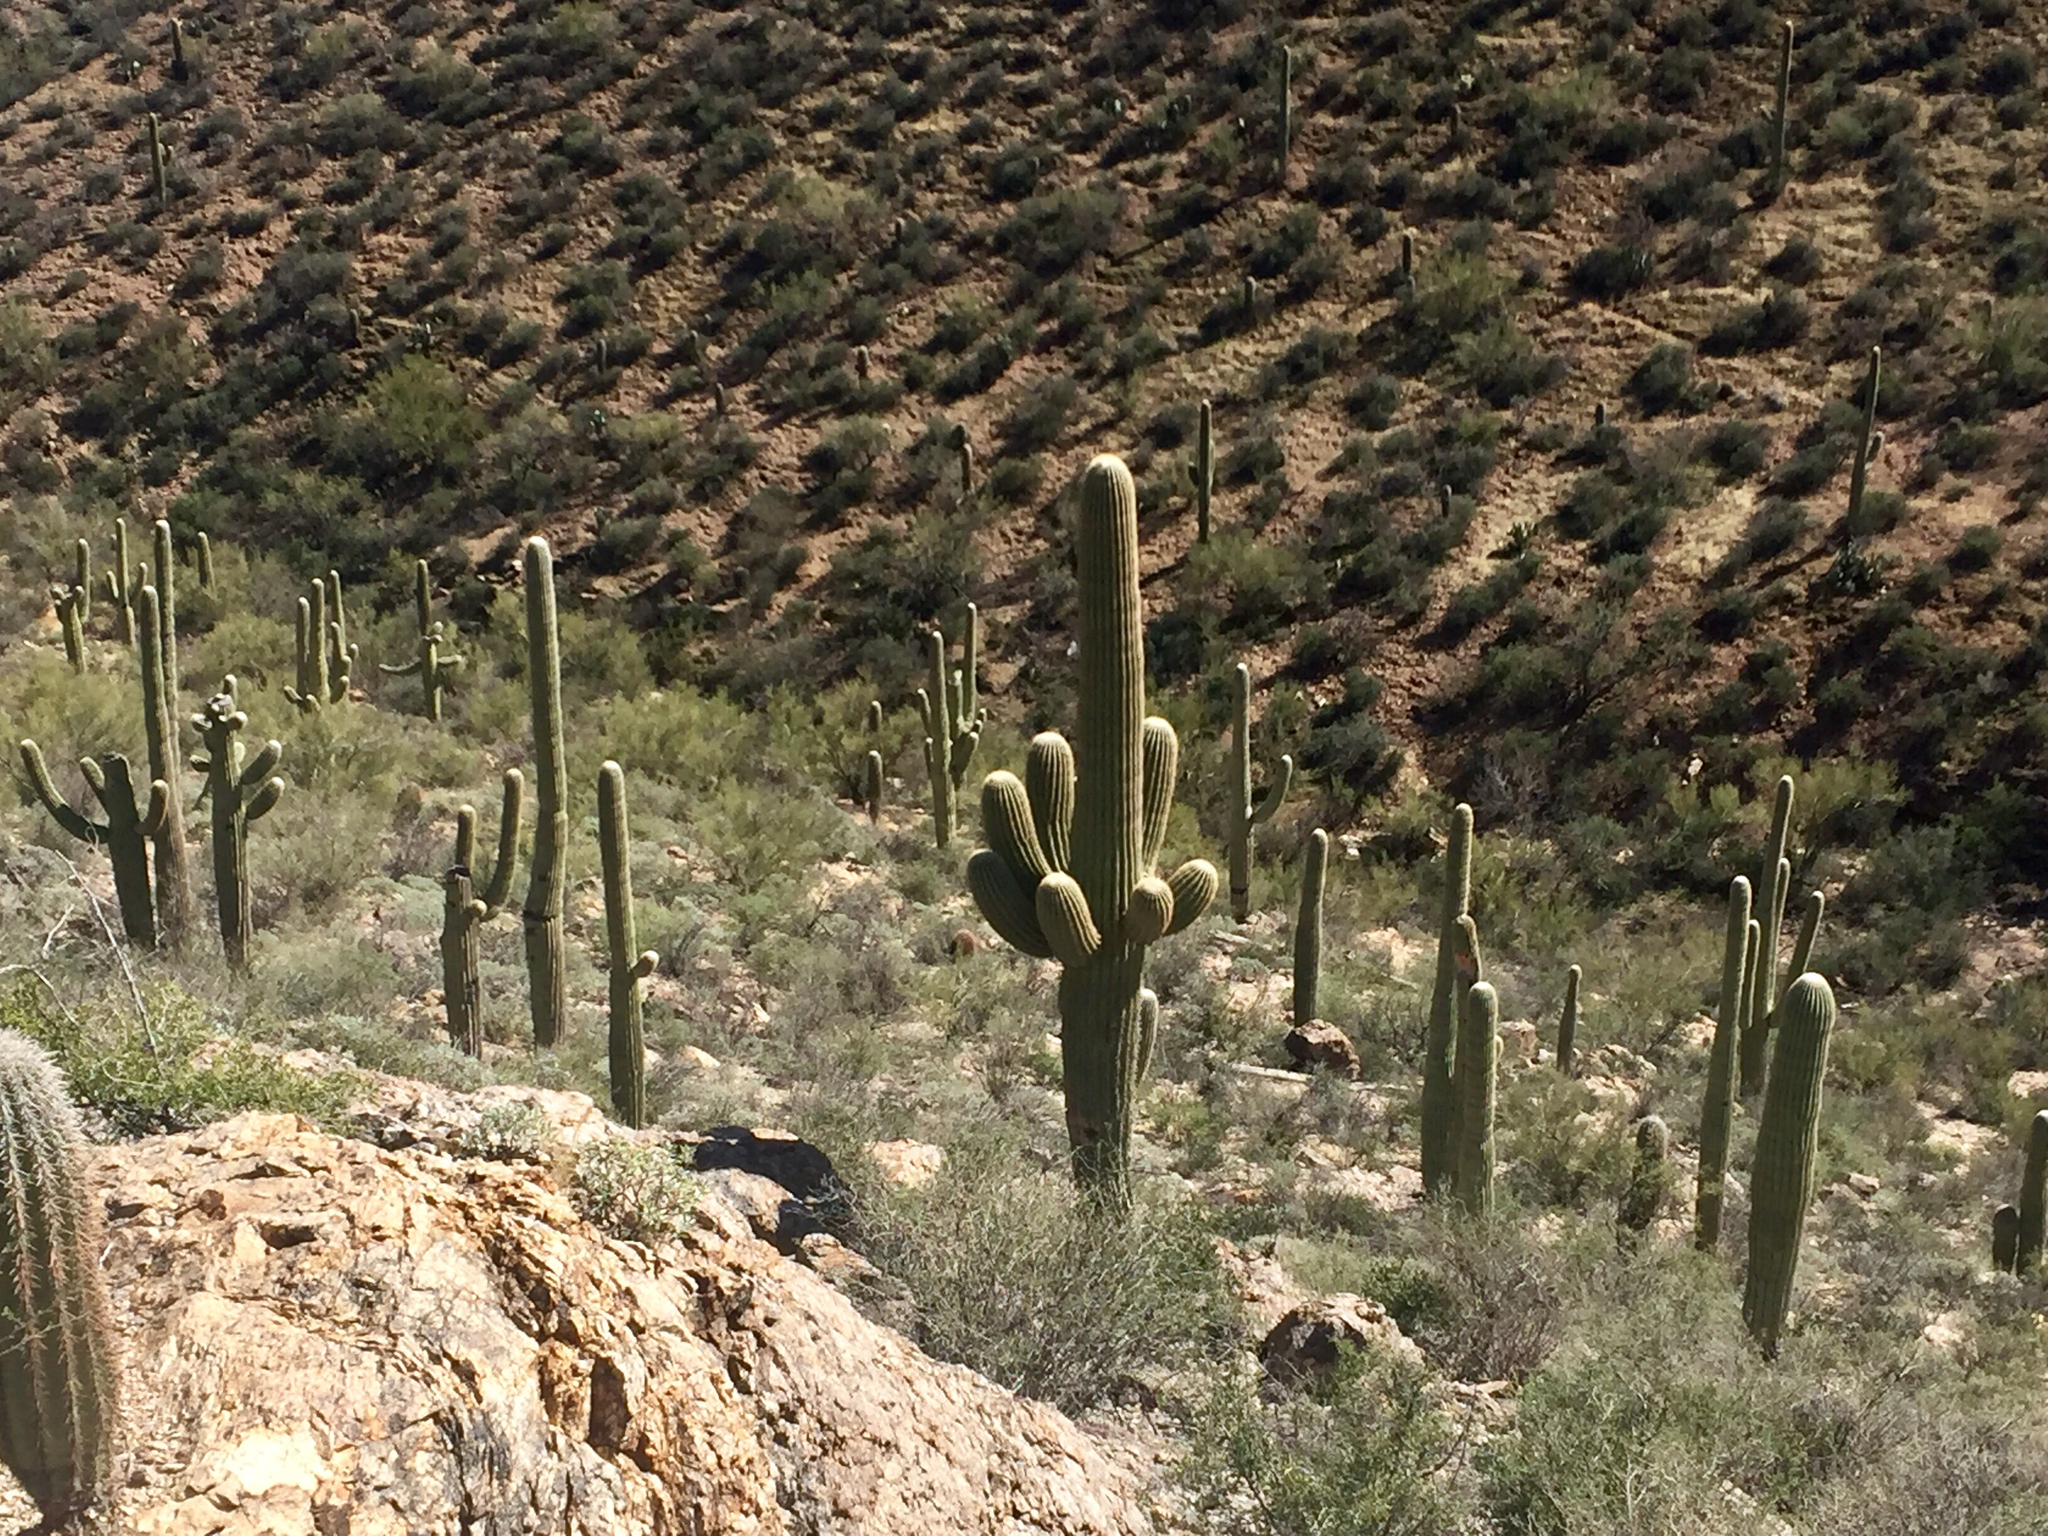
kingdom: Plantae
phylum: Tracheophyta
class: Magnoliopsida
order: Caryophyllales
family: Cactaceae
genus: Carnegiea
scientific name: Carnegiea gigantea
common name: Saguaro
